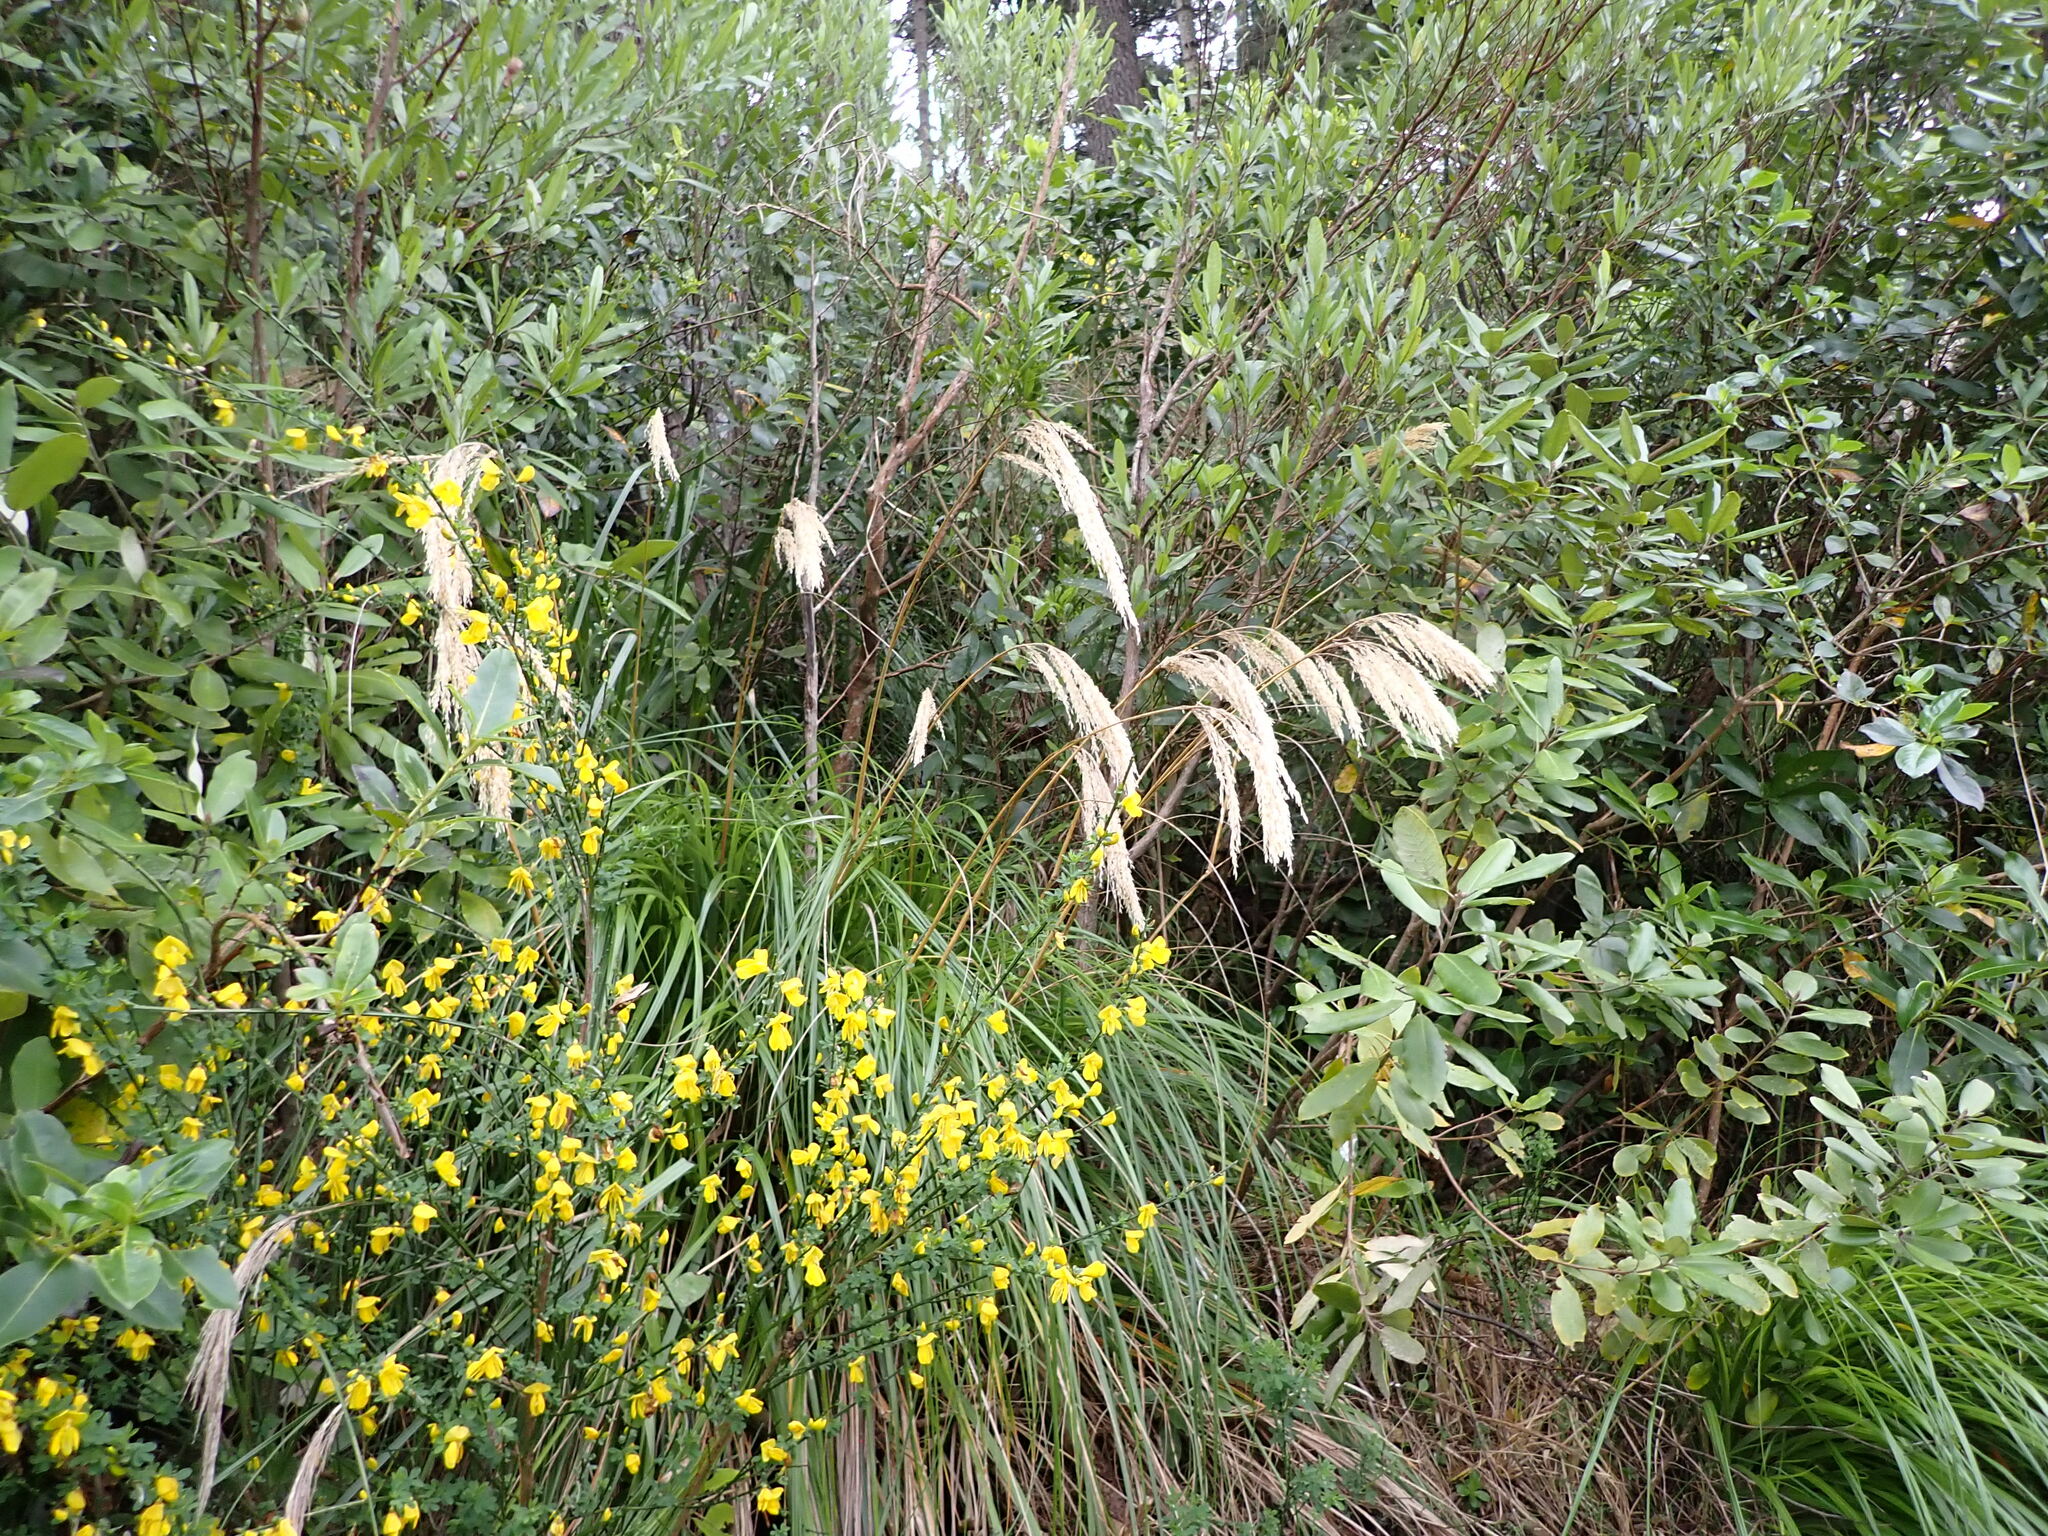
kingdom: Plantae
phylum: Tracheophyta
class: Liliopsida
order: Poales
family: Poaceae
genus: Chionochloa
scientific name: Chionochloa flavicans
